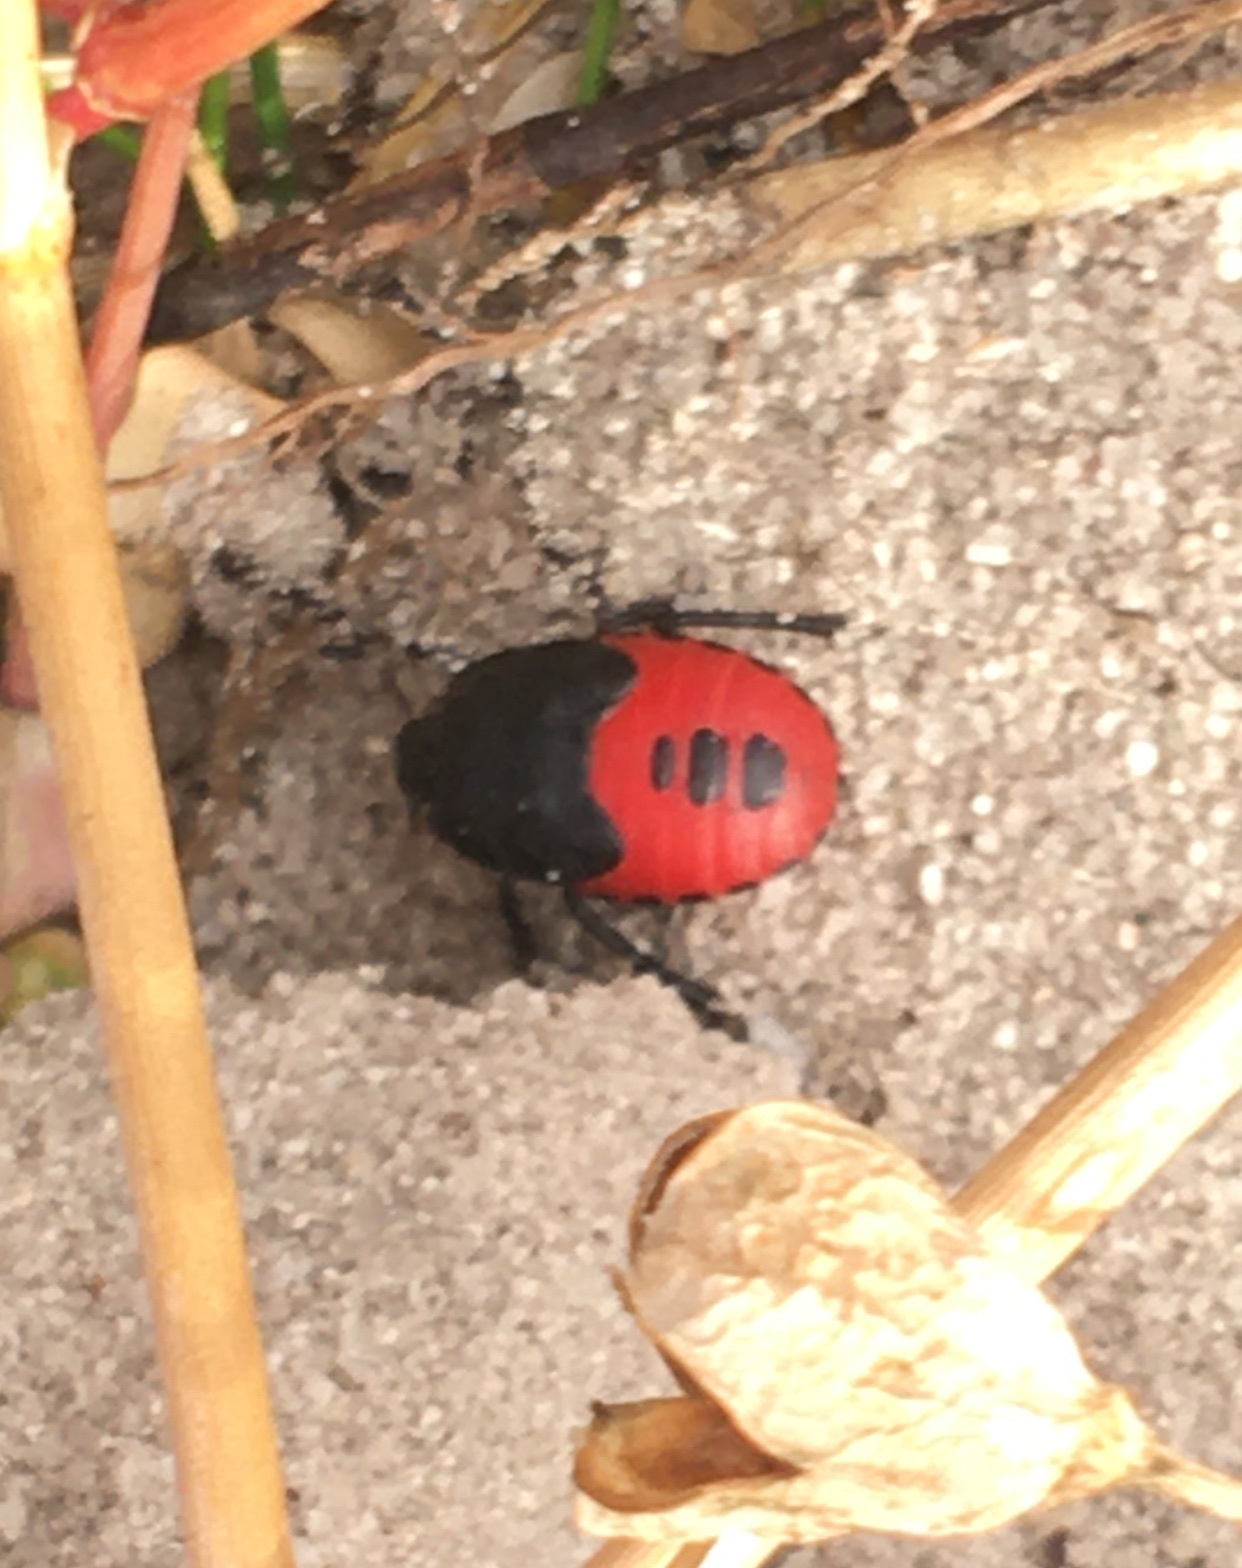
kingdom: Animalia
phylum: Arthropoda
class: Insecta
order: Hemiptera
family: Cydnidae
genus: Cydnus
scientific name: Cydnus aterrimus
